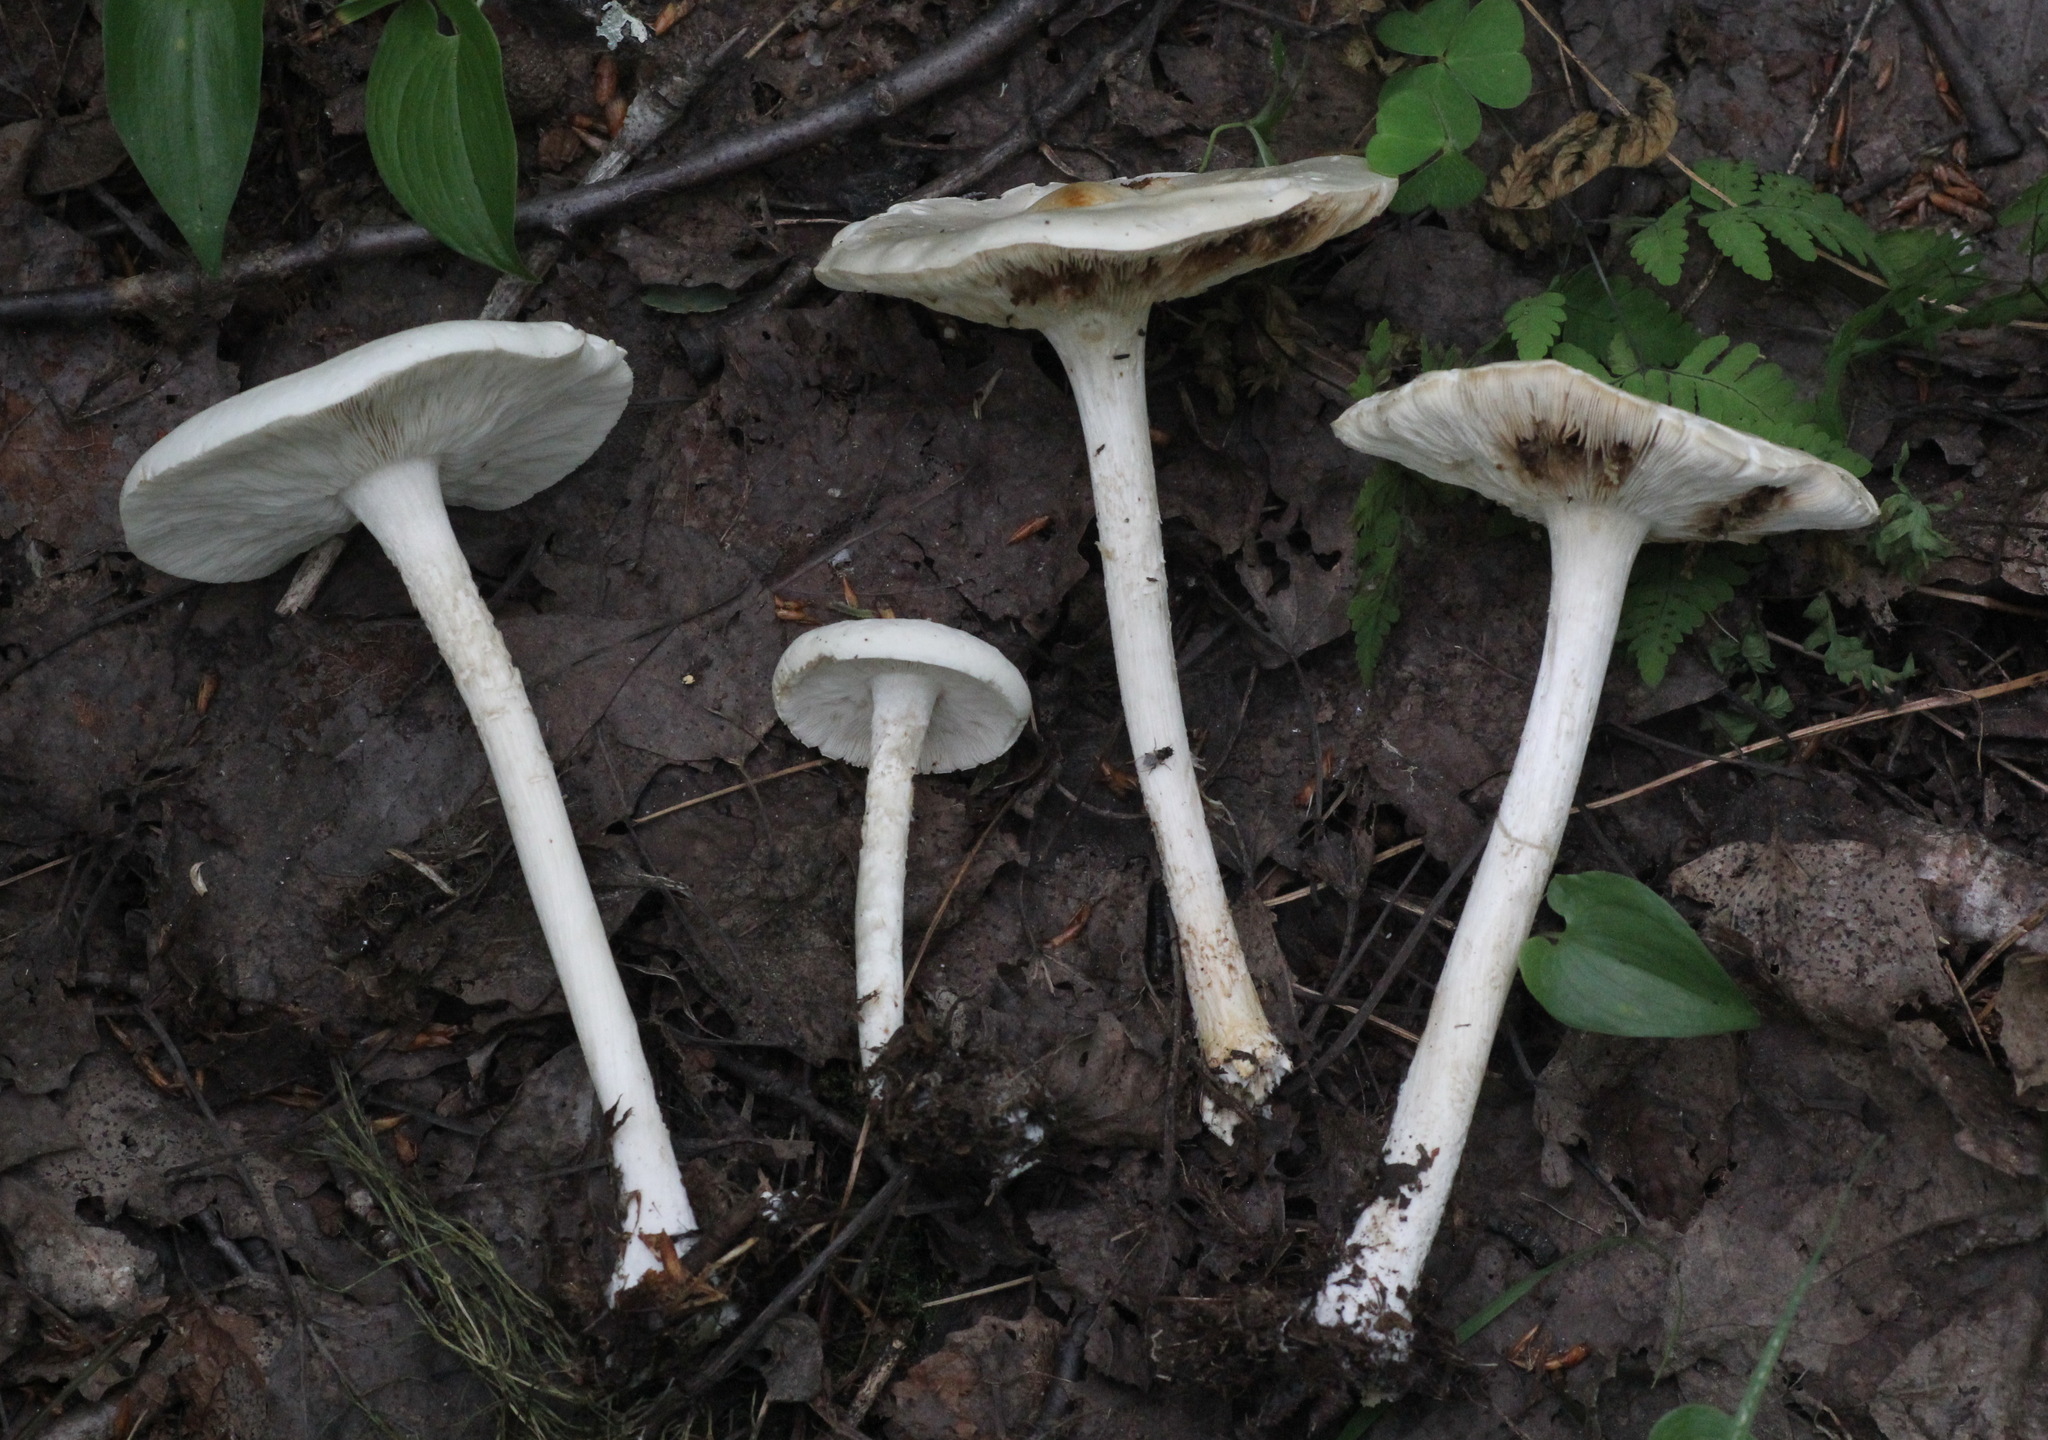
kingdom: Fungi
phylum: Basidiomycota
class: Agaricomycetes
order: Agaricales
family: Tricholomataceae
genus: Melanoleuca
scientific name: Melanoleuca strictipes
